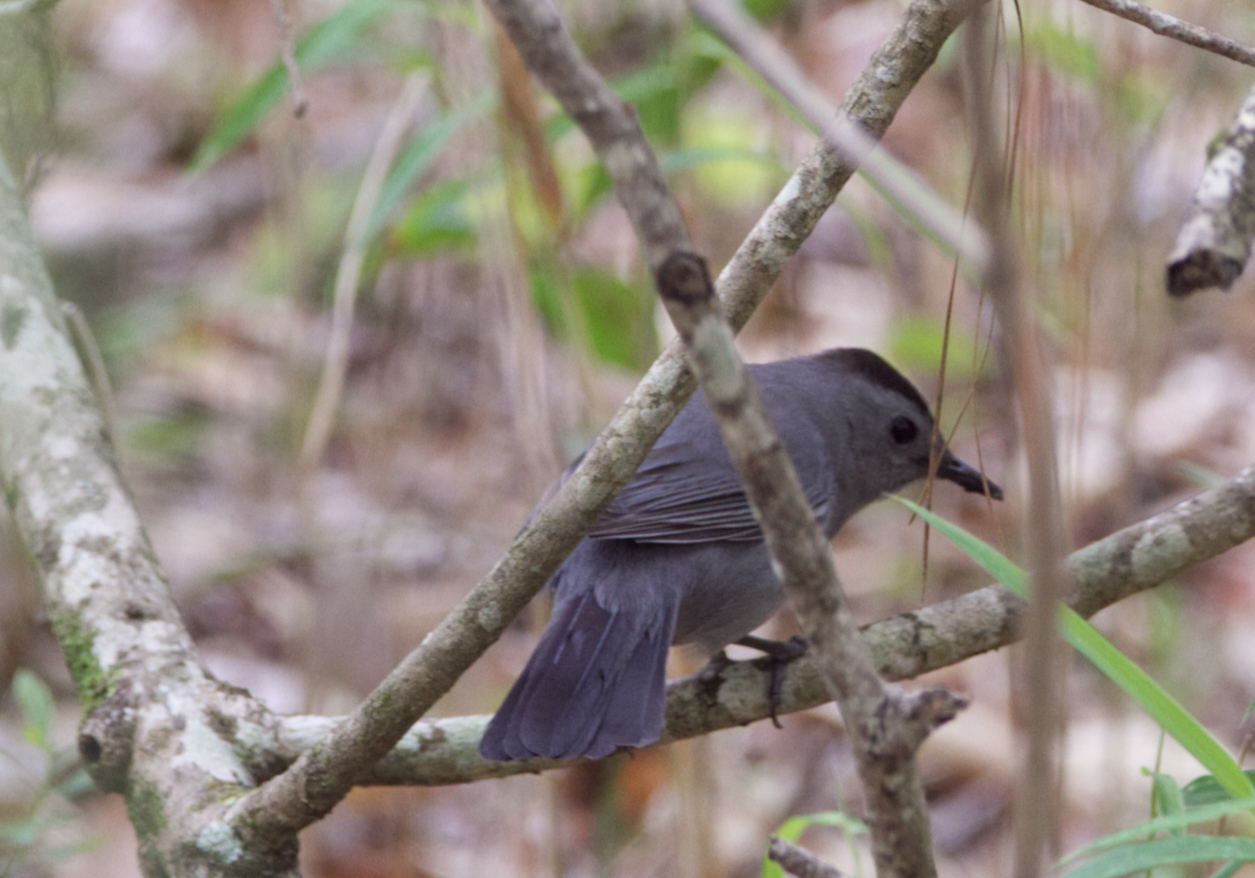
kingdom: Animalia
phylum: Chordata
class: Aves
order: Passeriformes
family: Mimidae
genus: Dumetella
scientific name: Dumetella carolinensis
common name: Gray catbird
